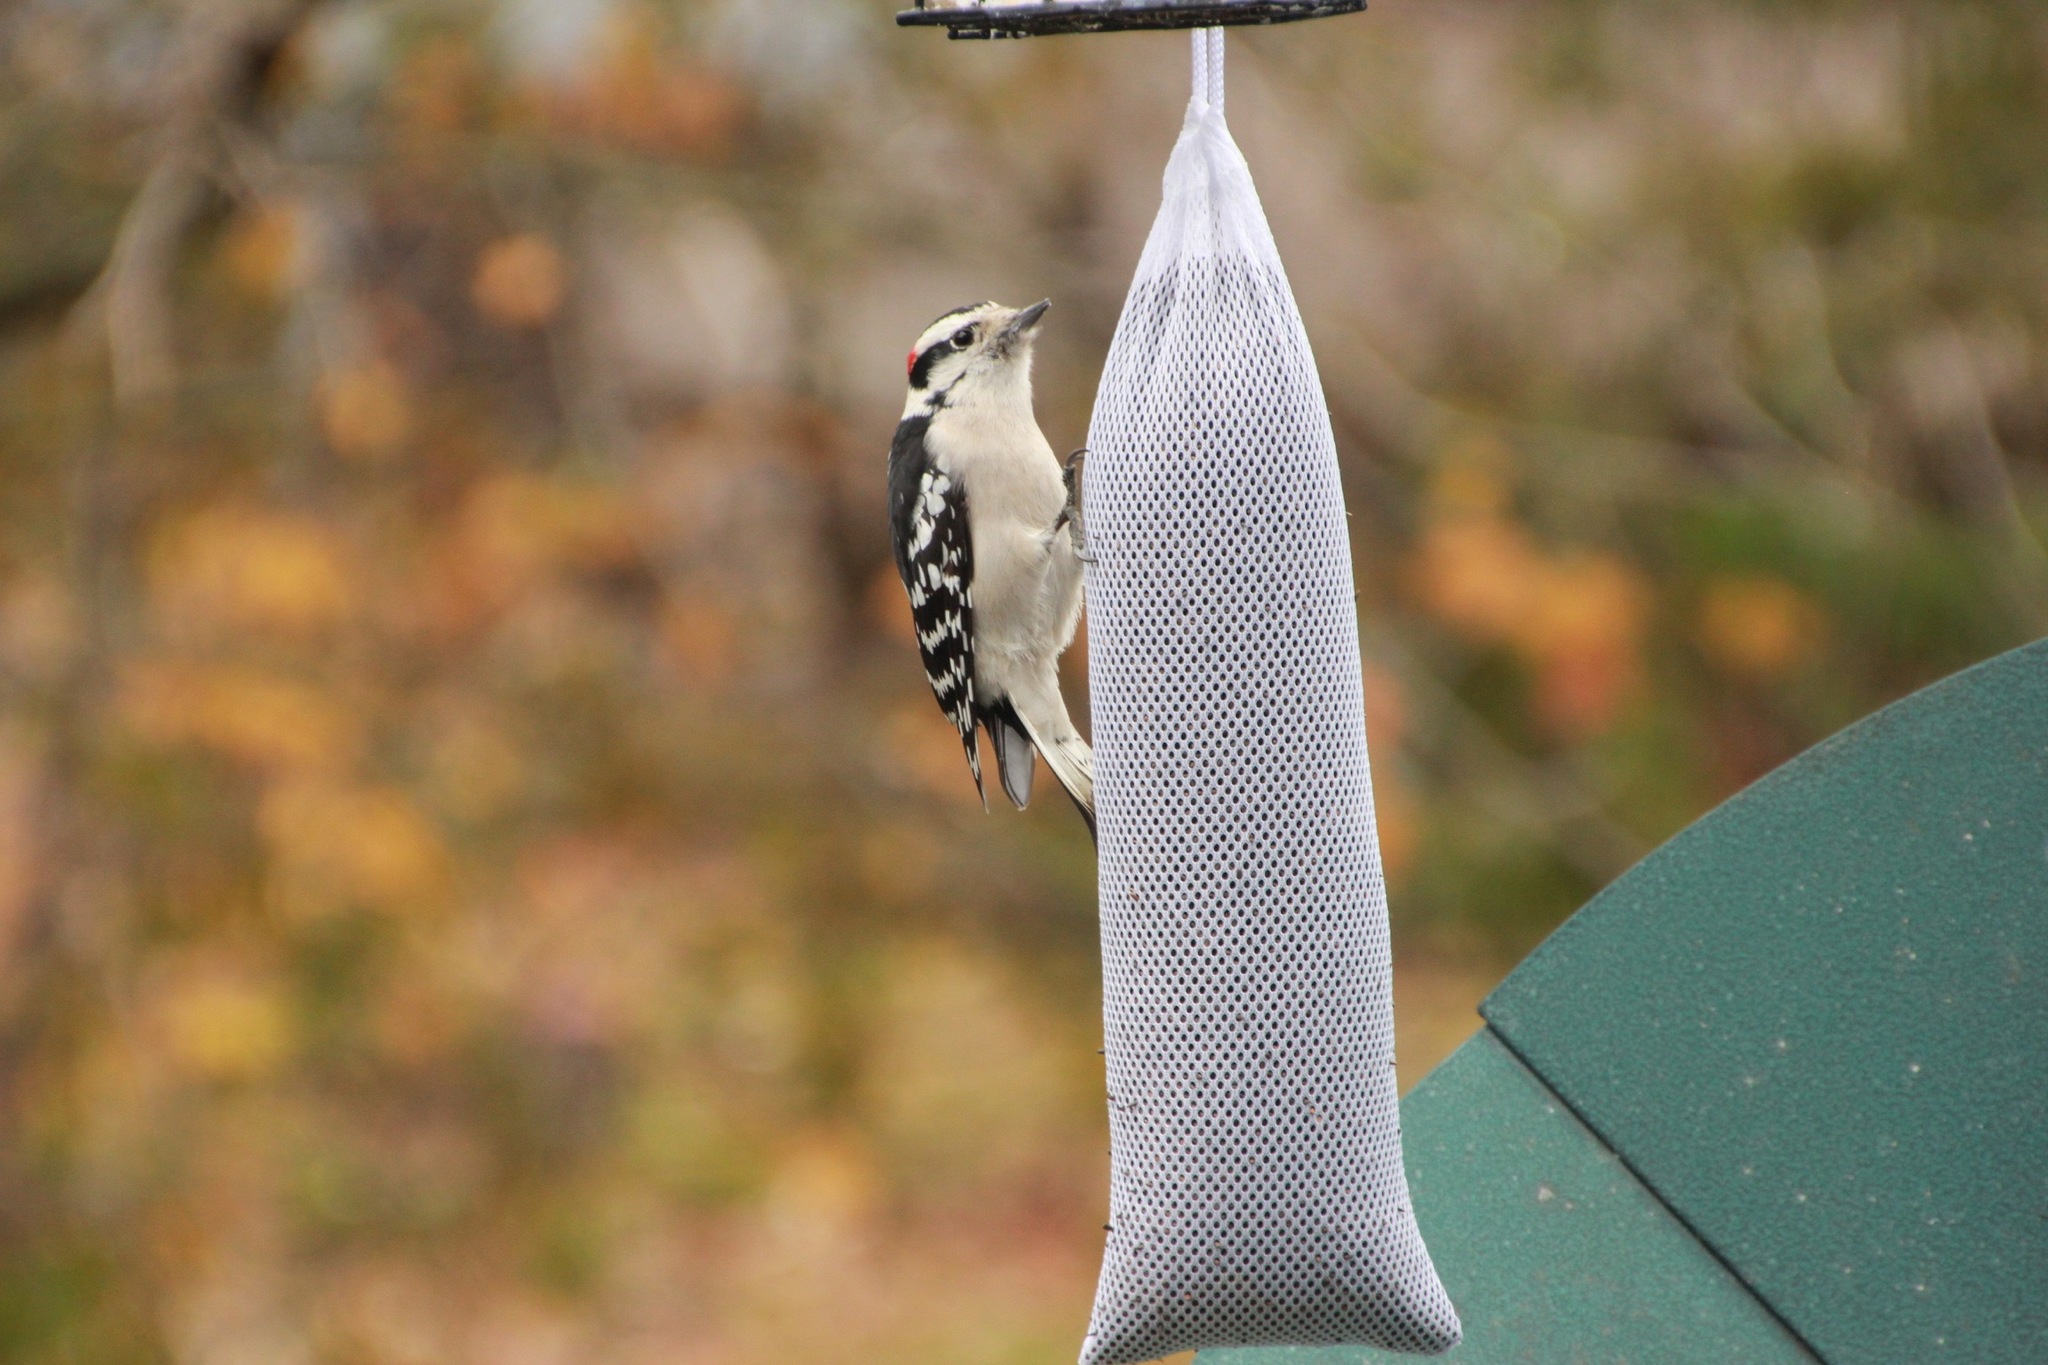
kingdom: Animalia
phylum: Chordata
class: Aves
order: Piciformes
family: Picidae
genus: Dryobates
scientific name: Dryobates pubescens
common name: Downy woodpecker
